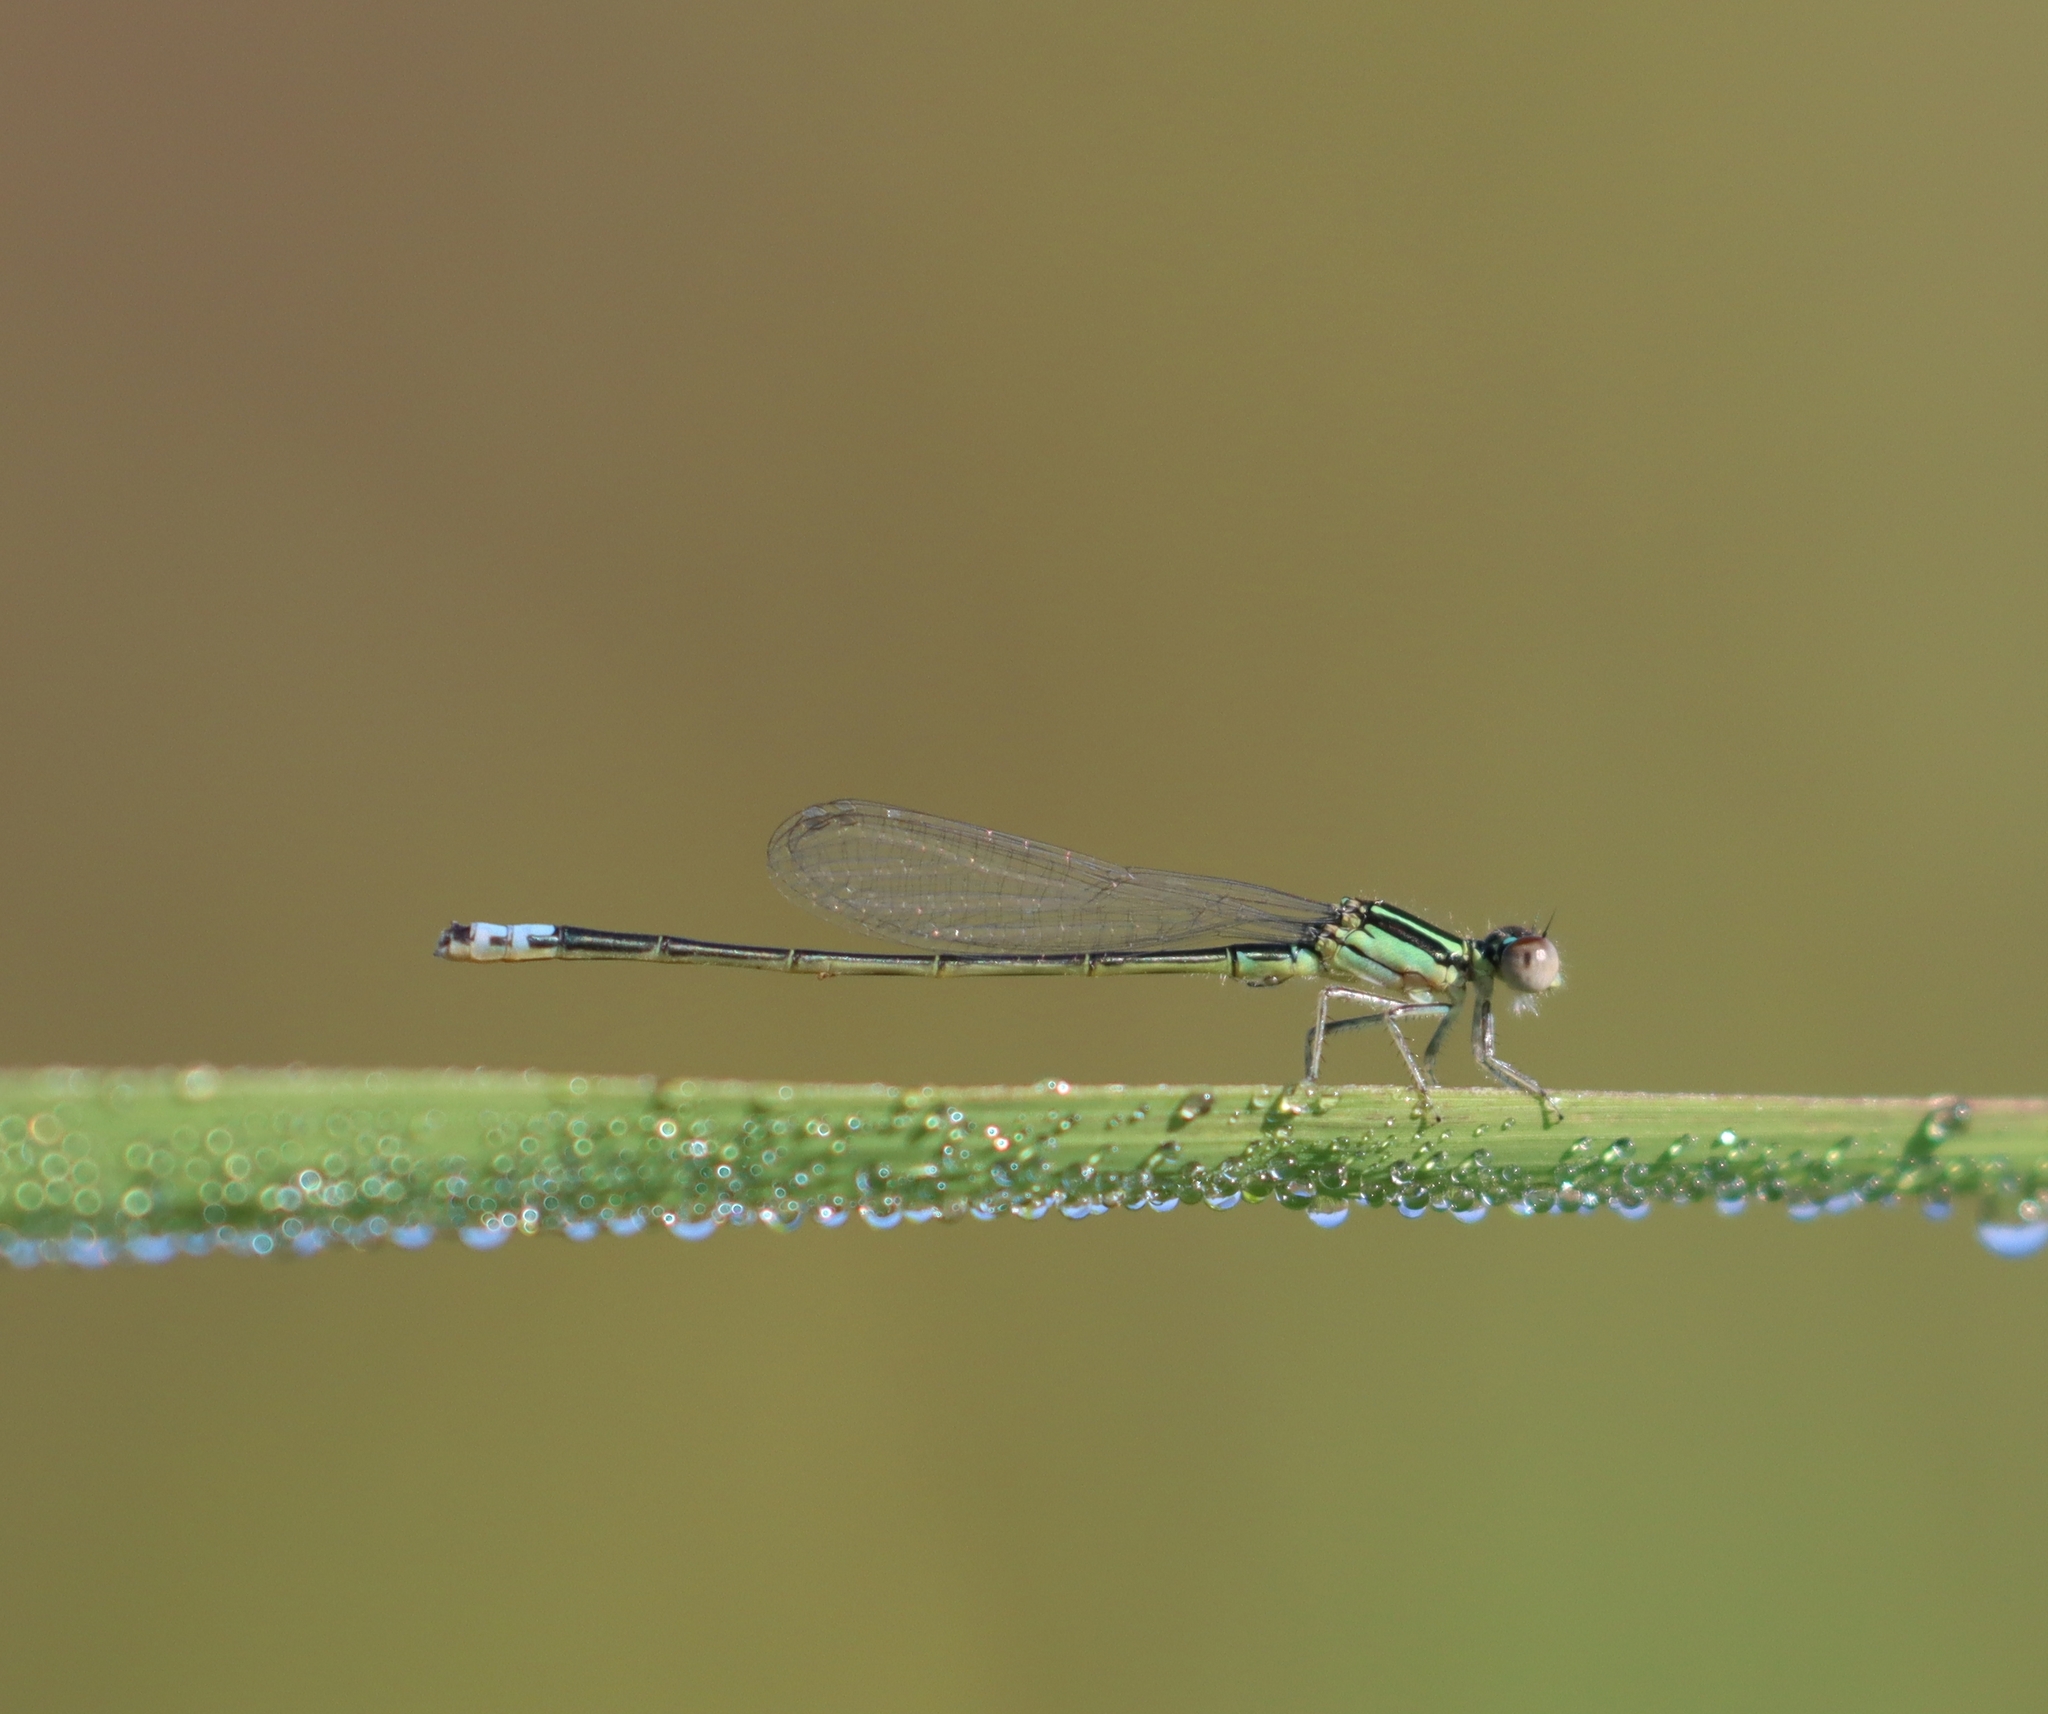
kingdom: Animalia
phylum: Arthropoda
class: Insecta
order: Odonata
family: Coenagrionidae
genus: Ischnura
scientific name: Ischnura verticalis
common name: Eastern forktail
